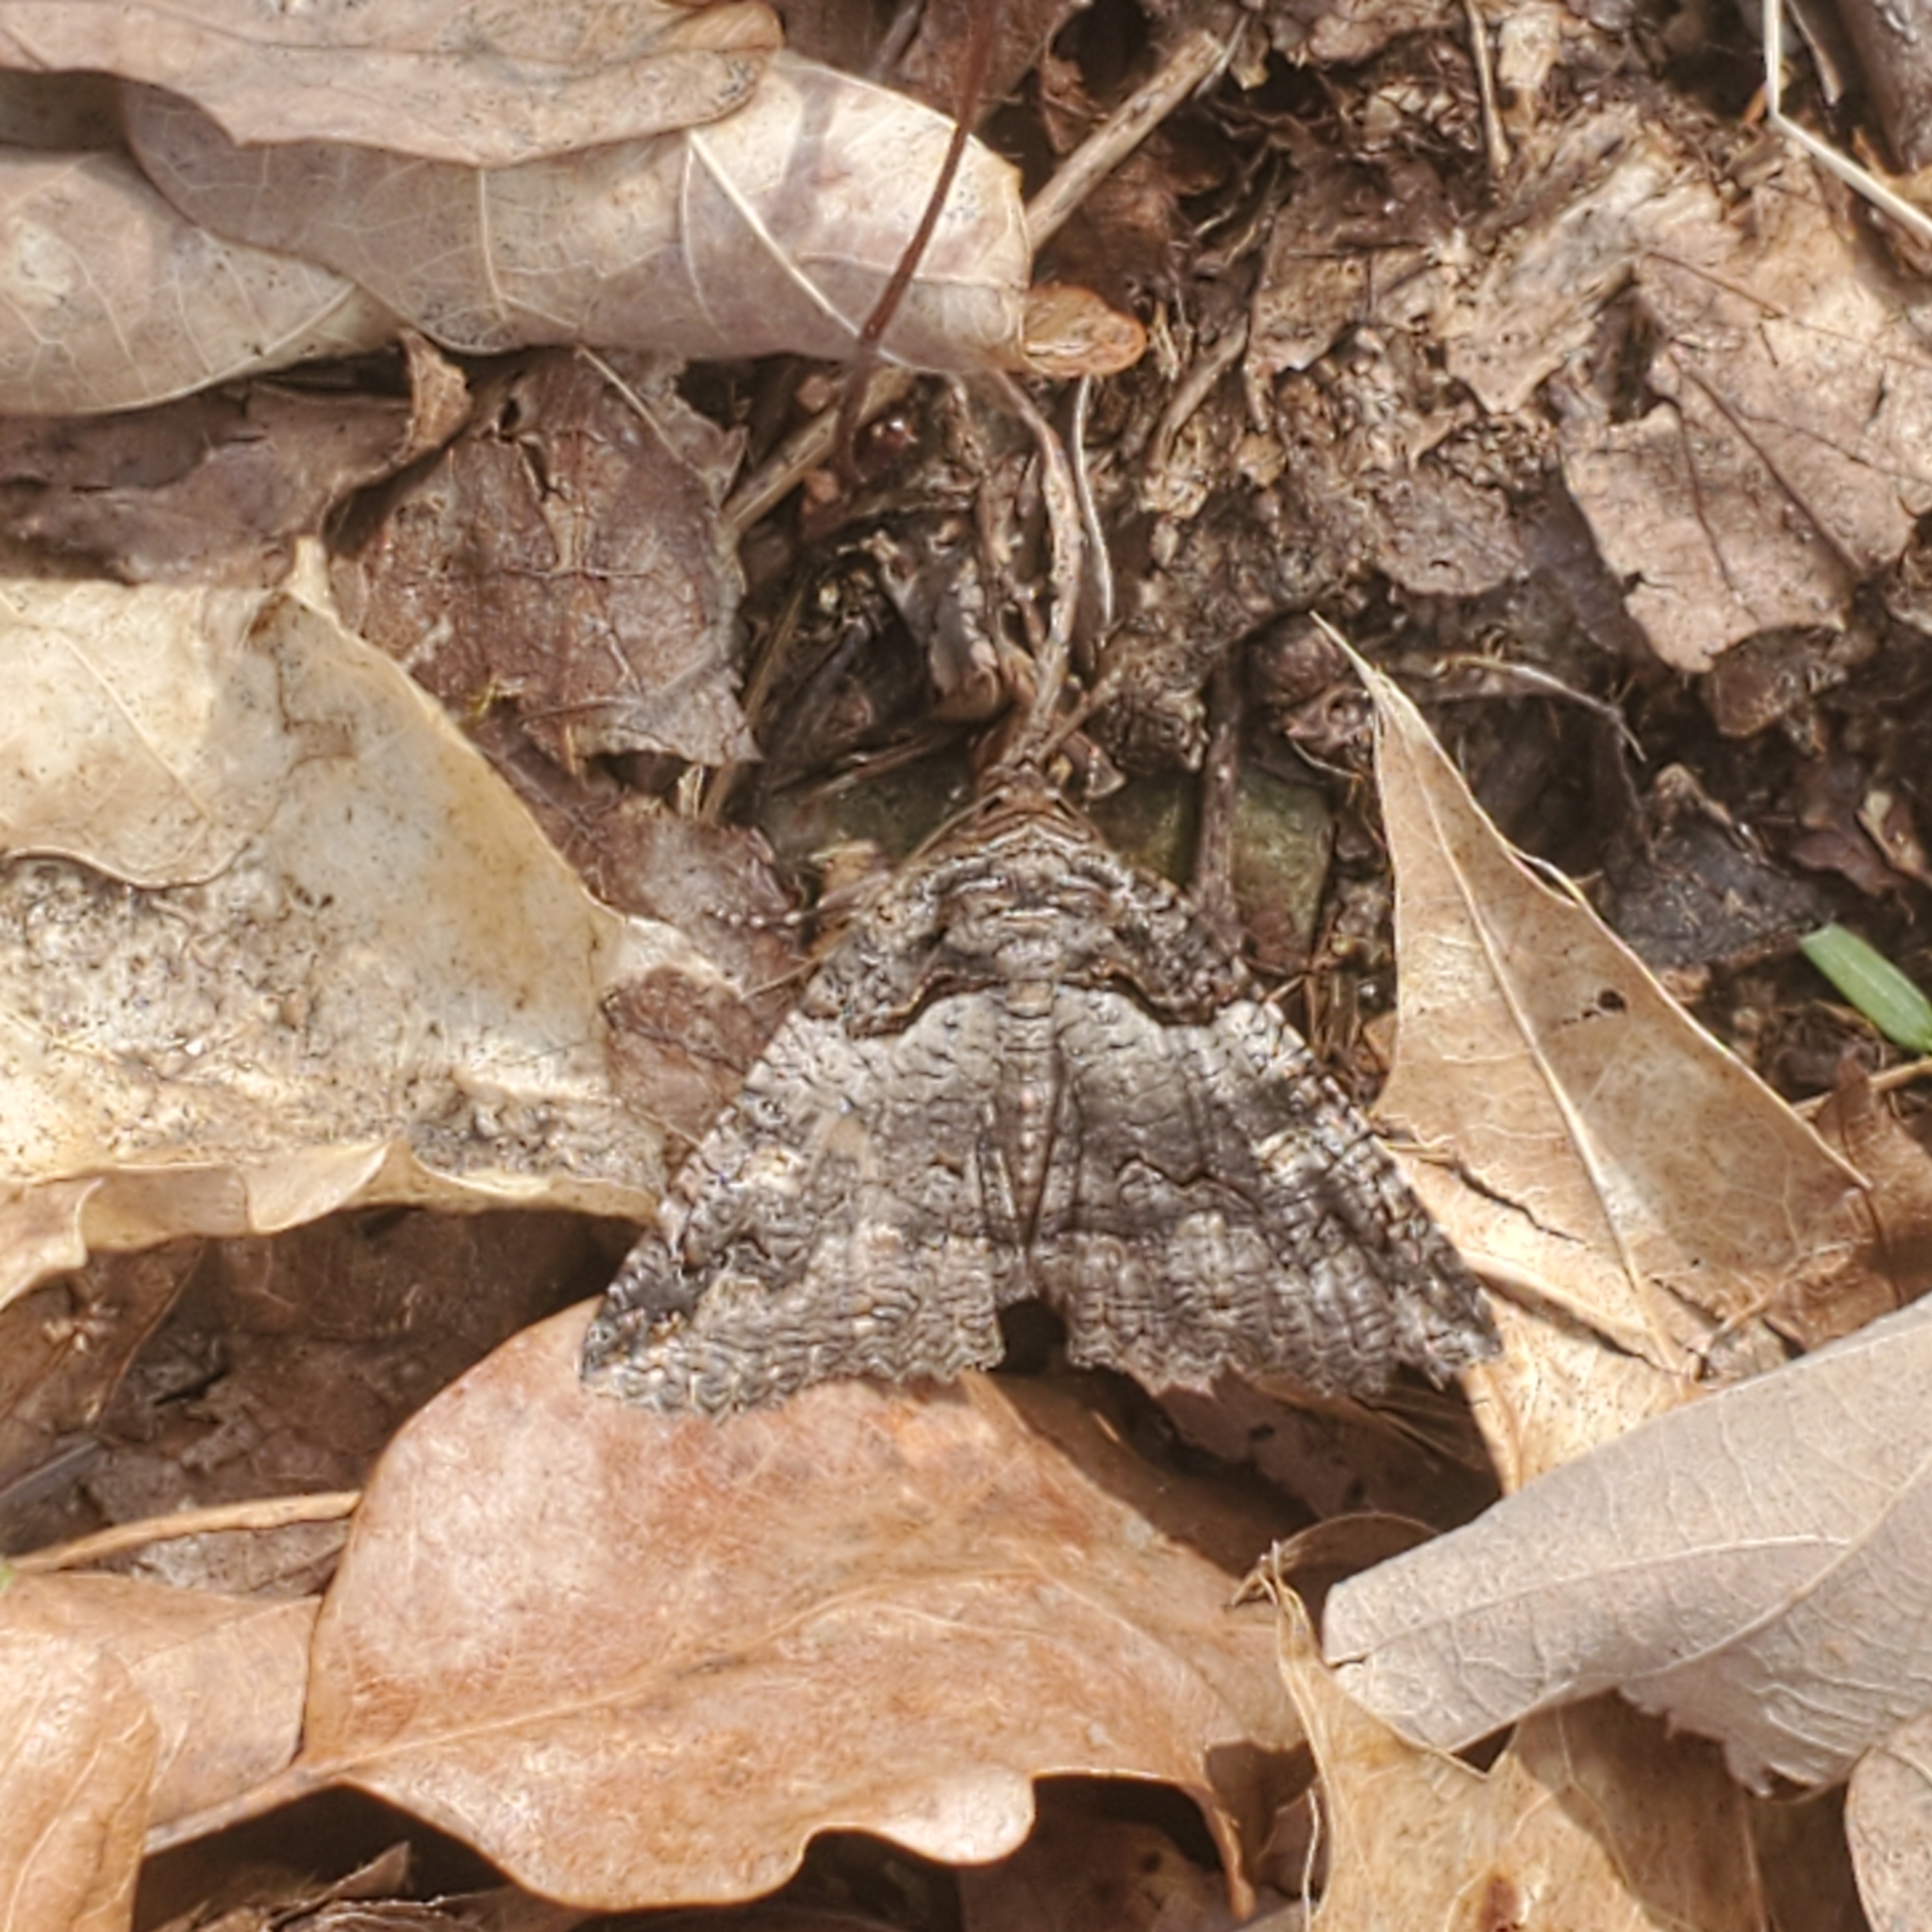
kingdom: Animalia
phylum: Arthropoda
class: Insecta
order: Lepidoptera
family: Erebidae
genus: Zale
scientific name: Zale intenta
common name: Intent zale moth
